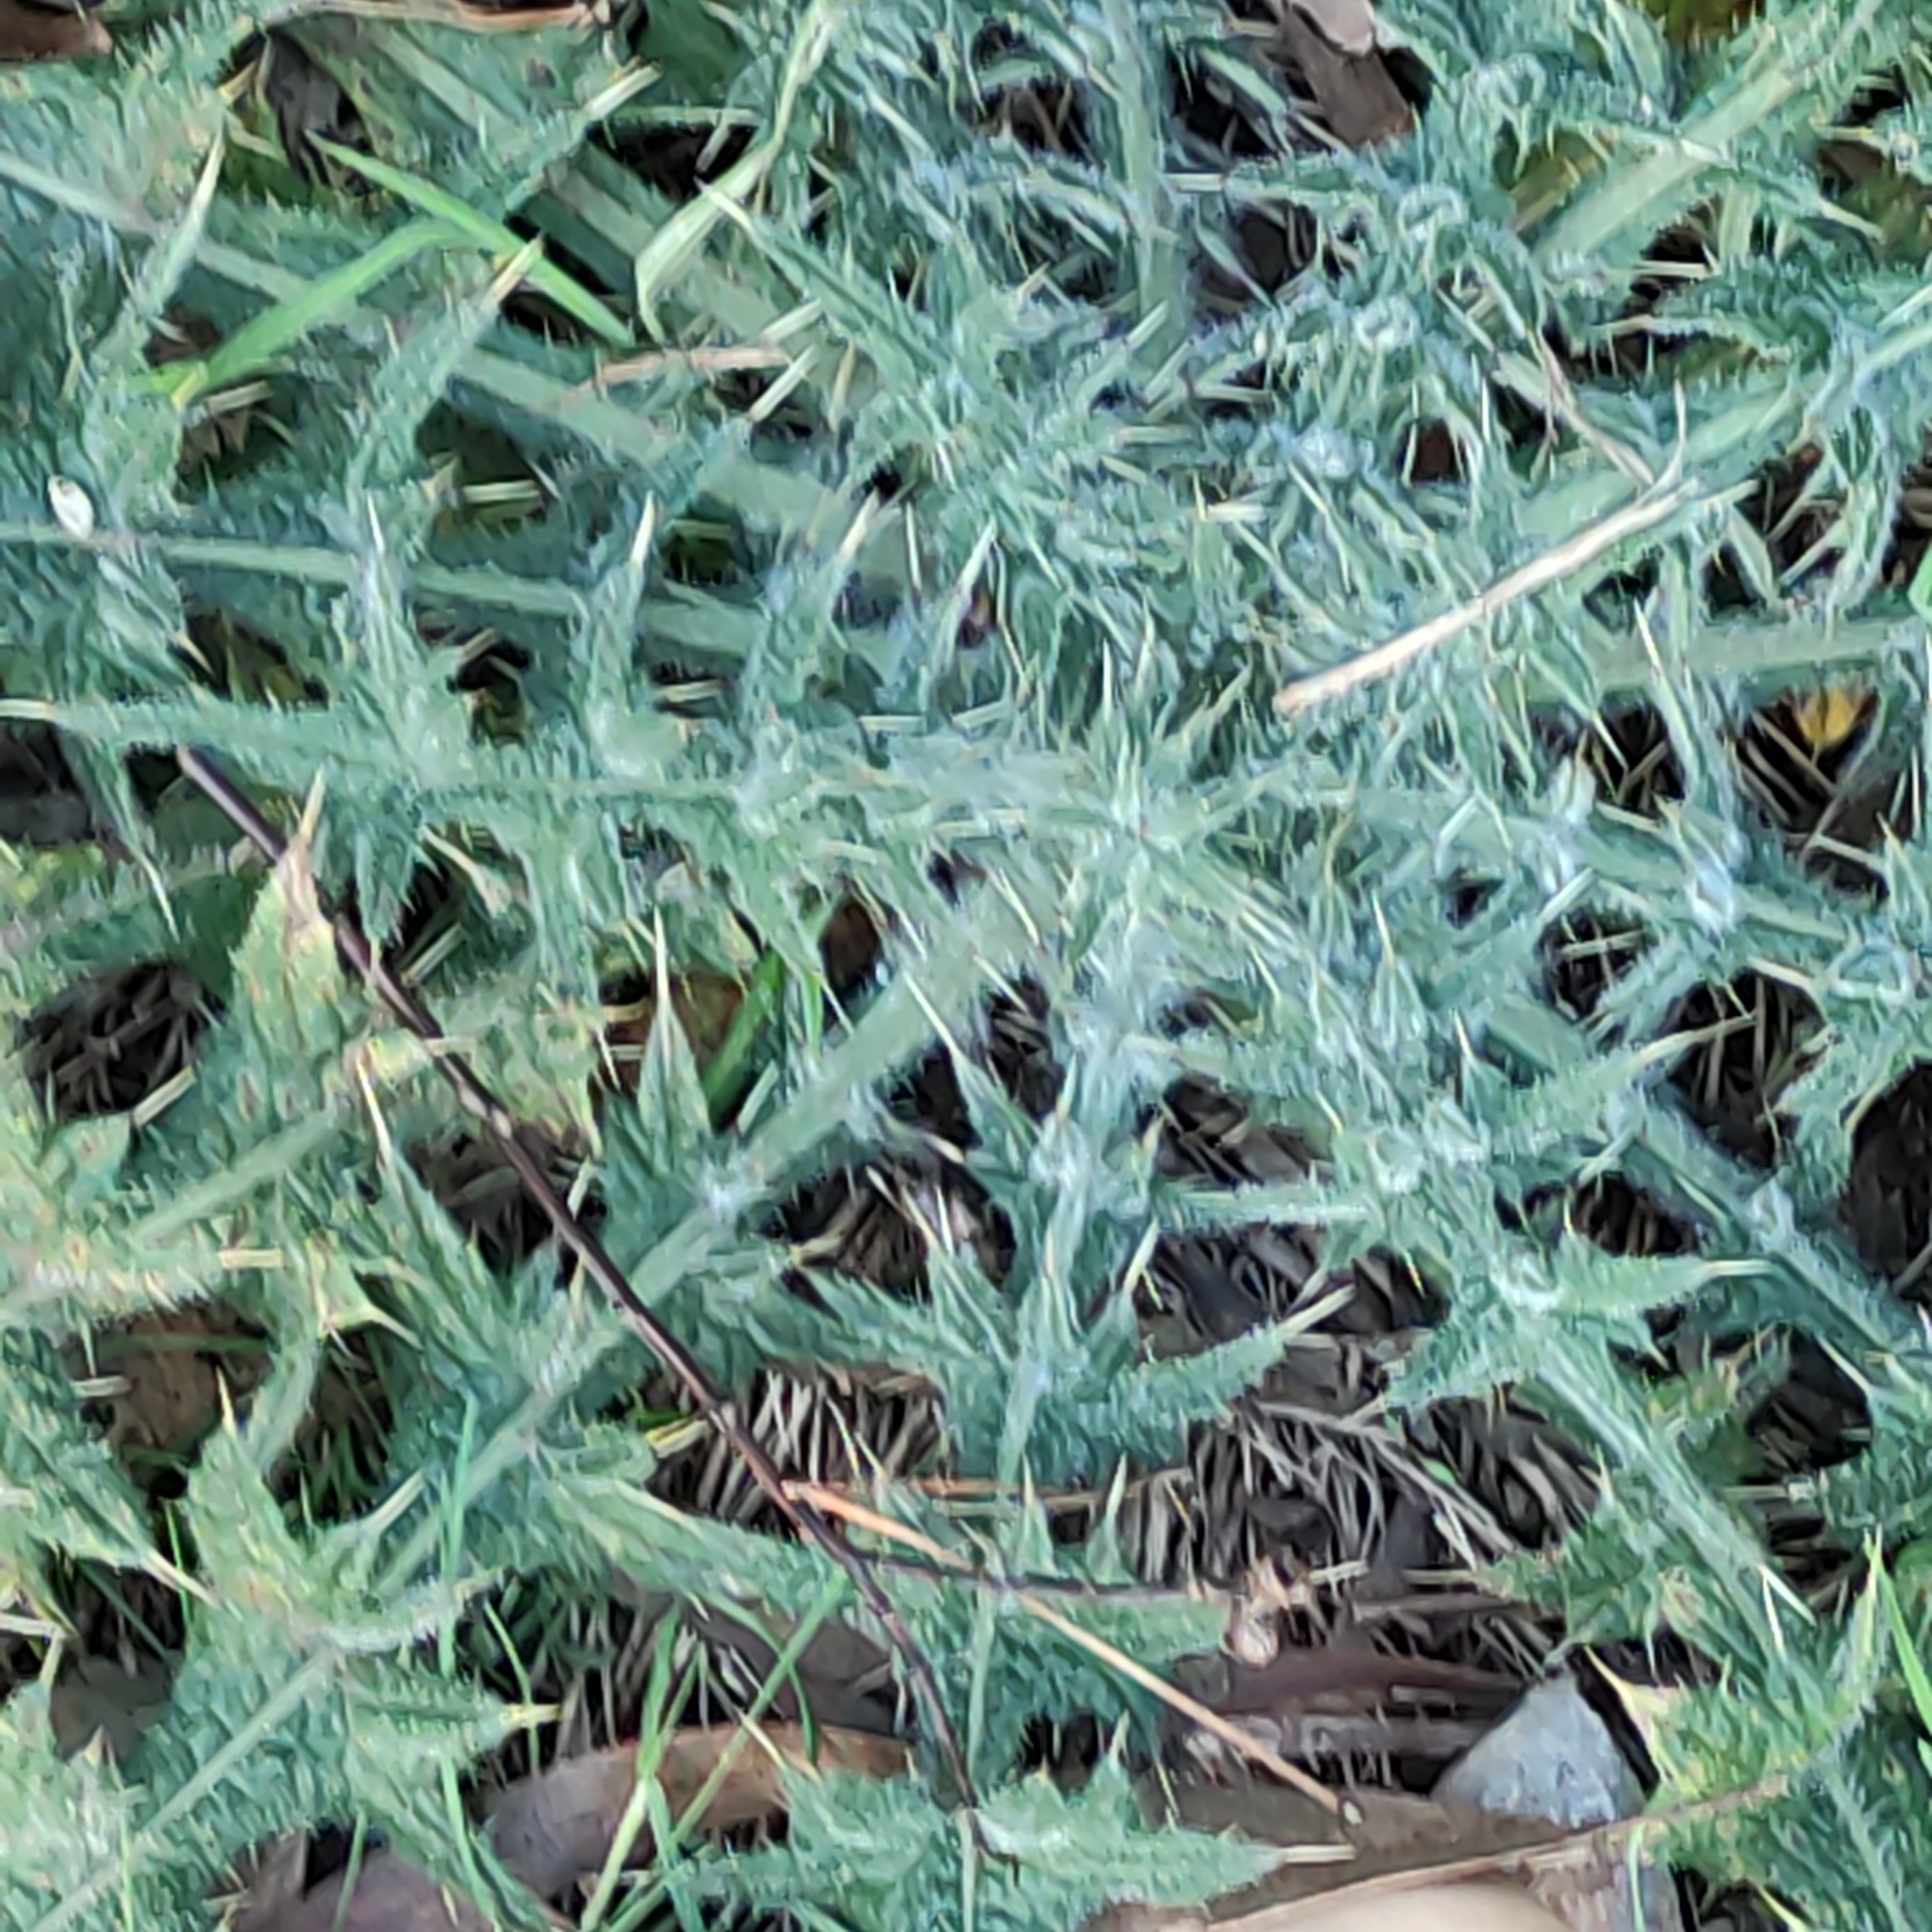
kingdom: Plantae
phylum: Tracheophyta
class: Magnoliopsida
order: Asterales
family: Asteraceae
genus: Cirsium
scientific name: Cirsium vulgare
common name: Bull thistle
